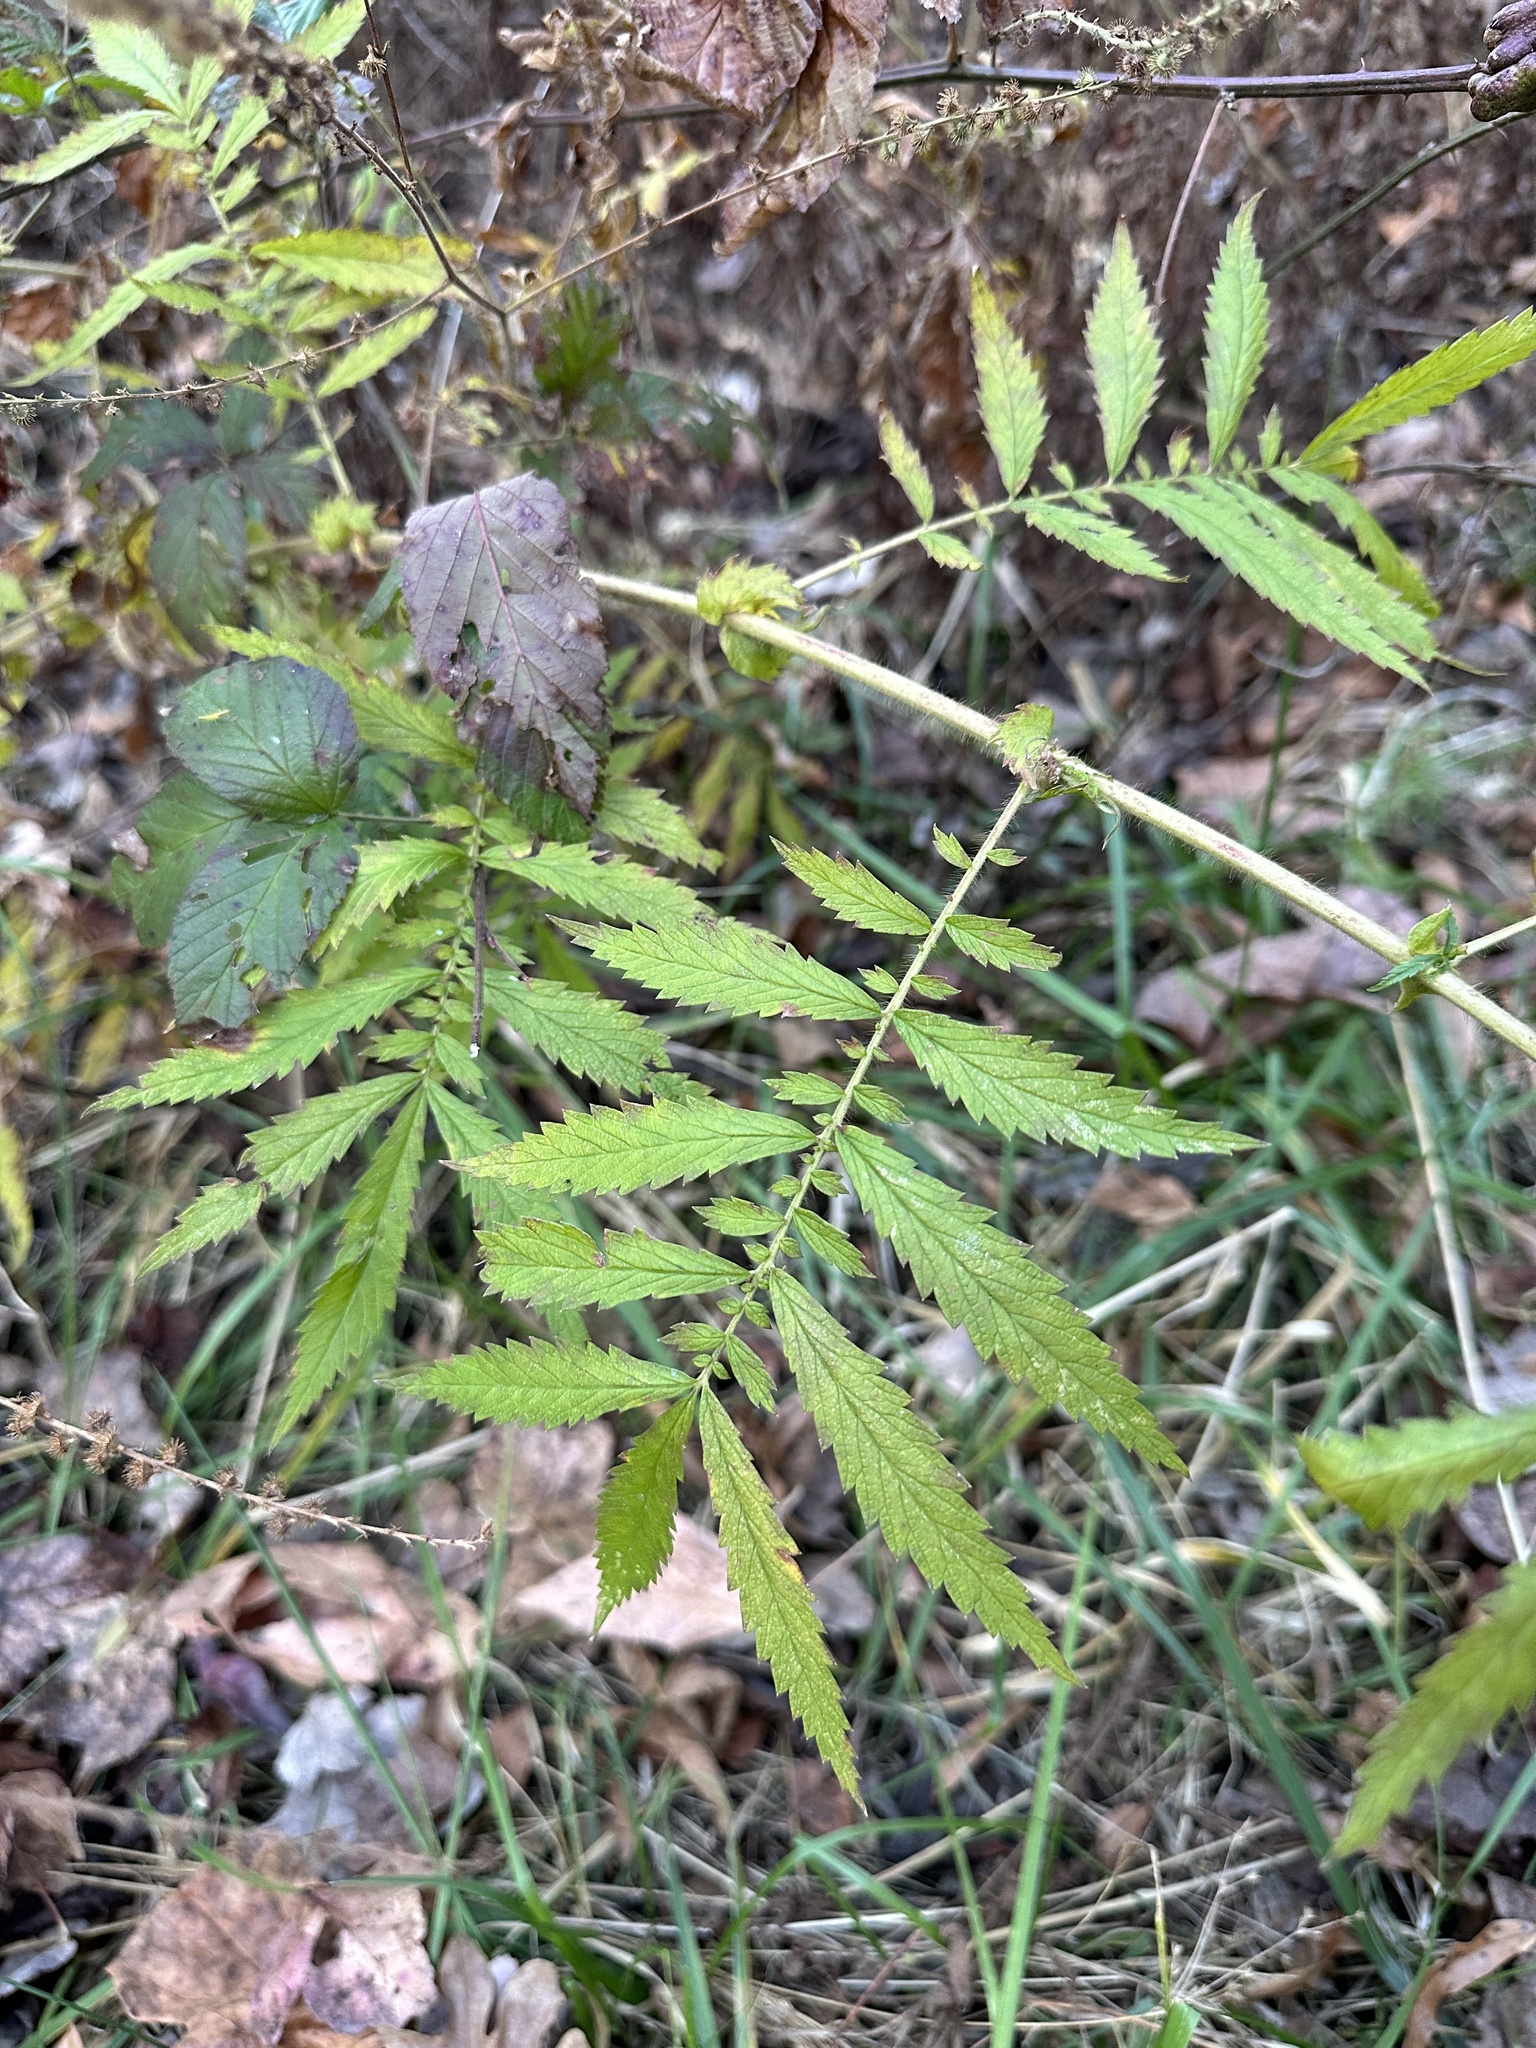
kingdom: Plantae
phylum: Tracheophyta
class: Magnoliopsida
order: Rosales
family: Rosaceae
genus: Agrimonia
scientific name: Agrimonia parviflora
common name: Harvest-lice
